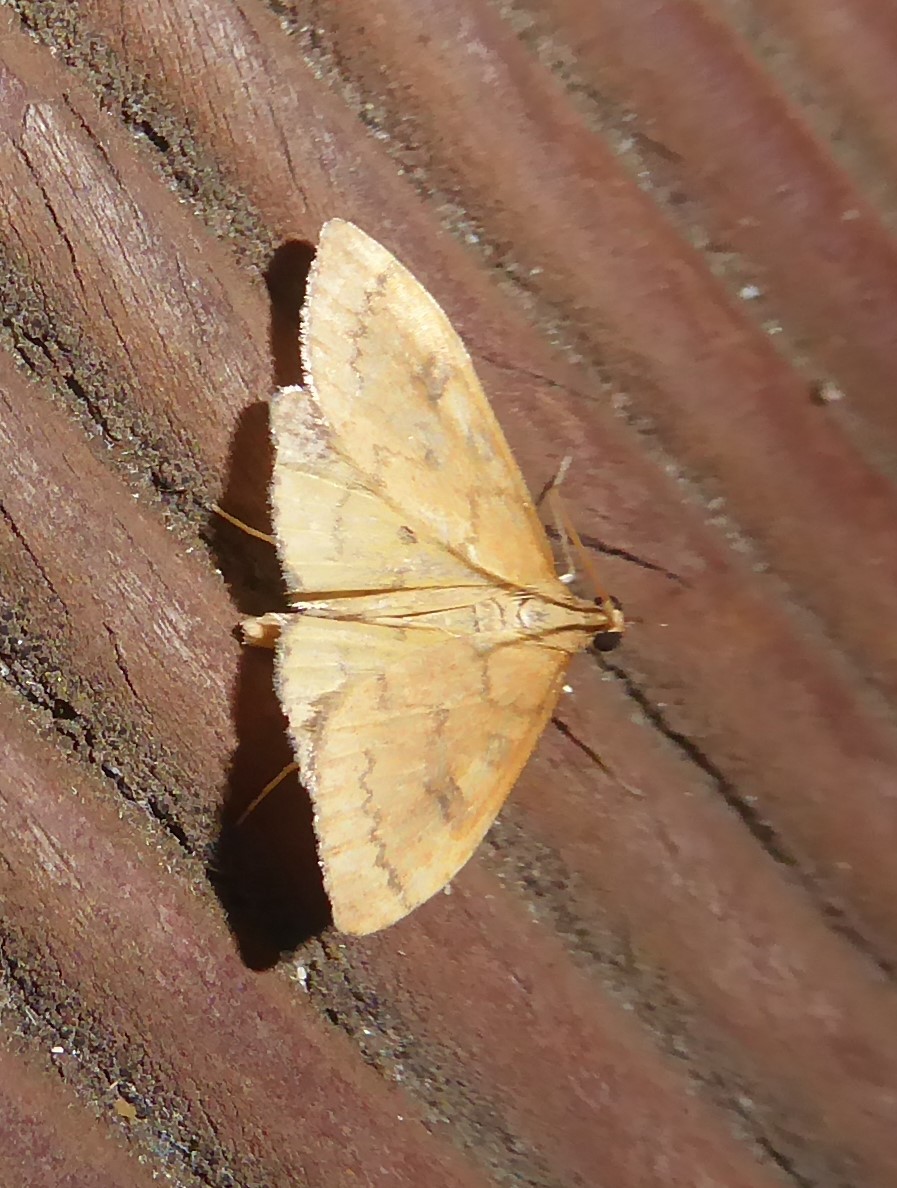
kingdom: Animalia
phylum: Arthropoda
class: Insecta
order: Lepidoptera
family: Crambidae
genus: Udea
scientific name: Udea Mnesictena flavidalis
